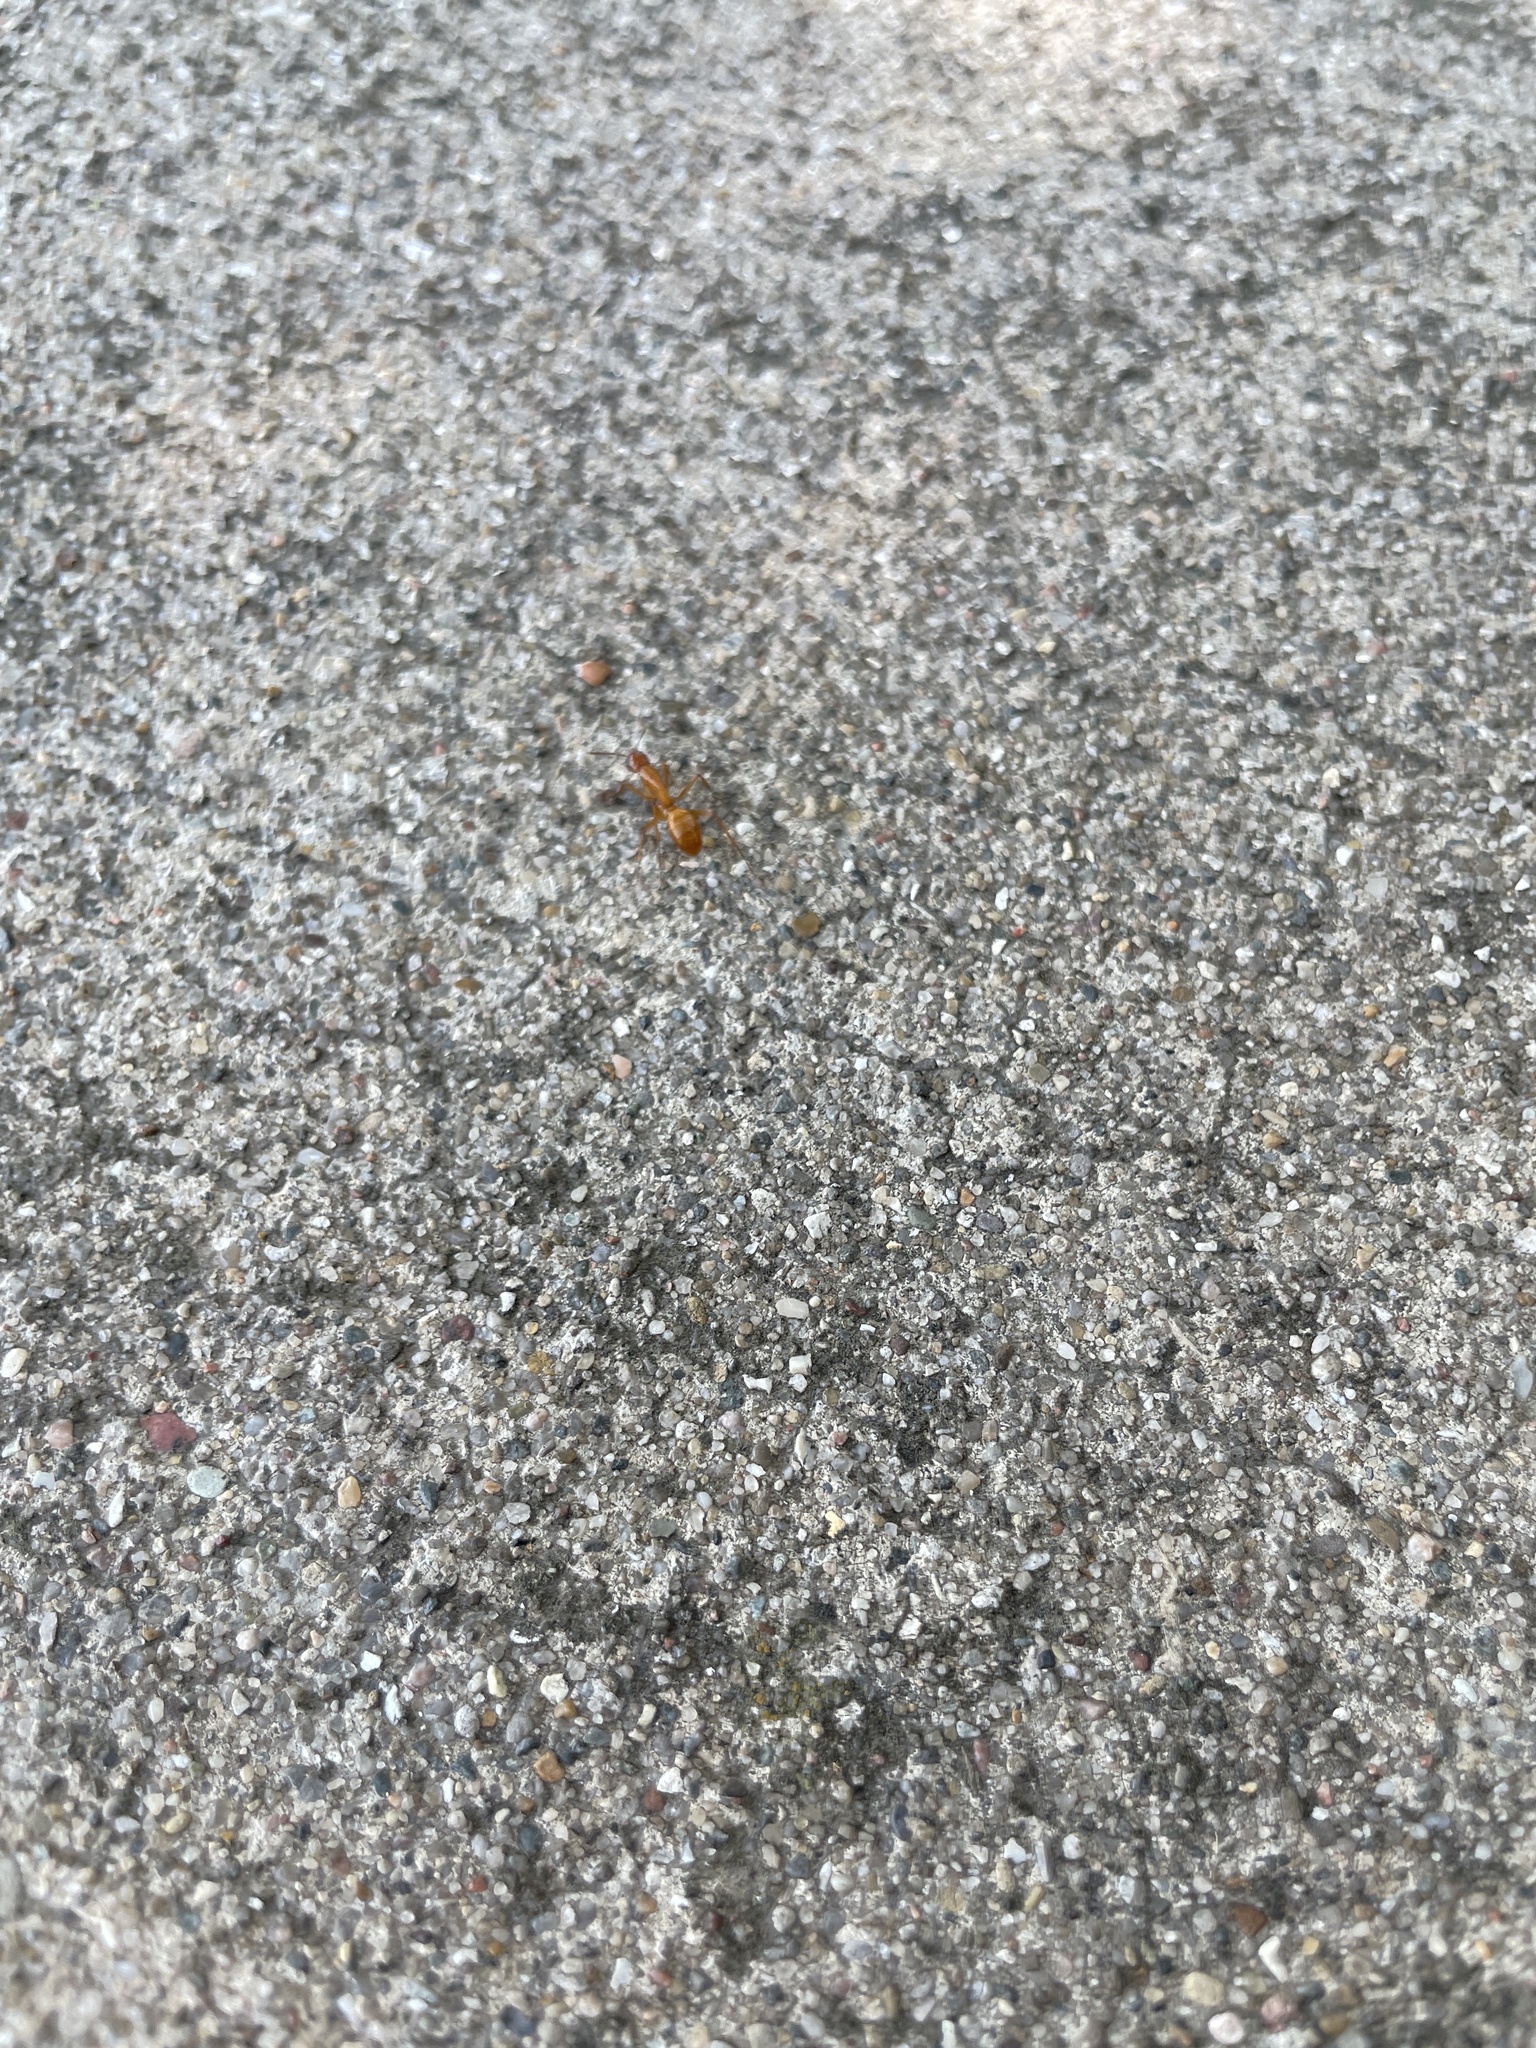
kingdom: Animalia
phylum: Arthropoda
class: Insecta
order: Hymenoptera
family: Formicidae
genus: Camponotus
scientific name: Camponotus castaneus
